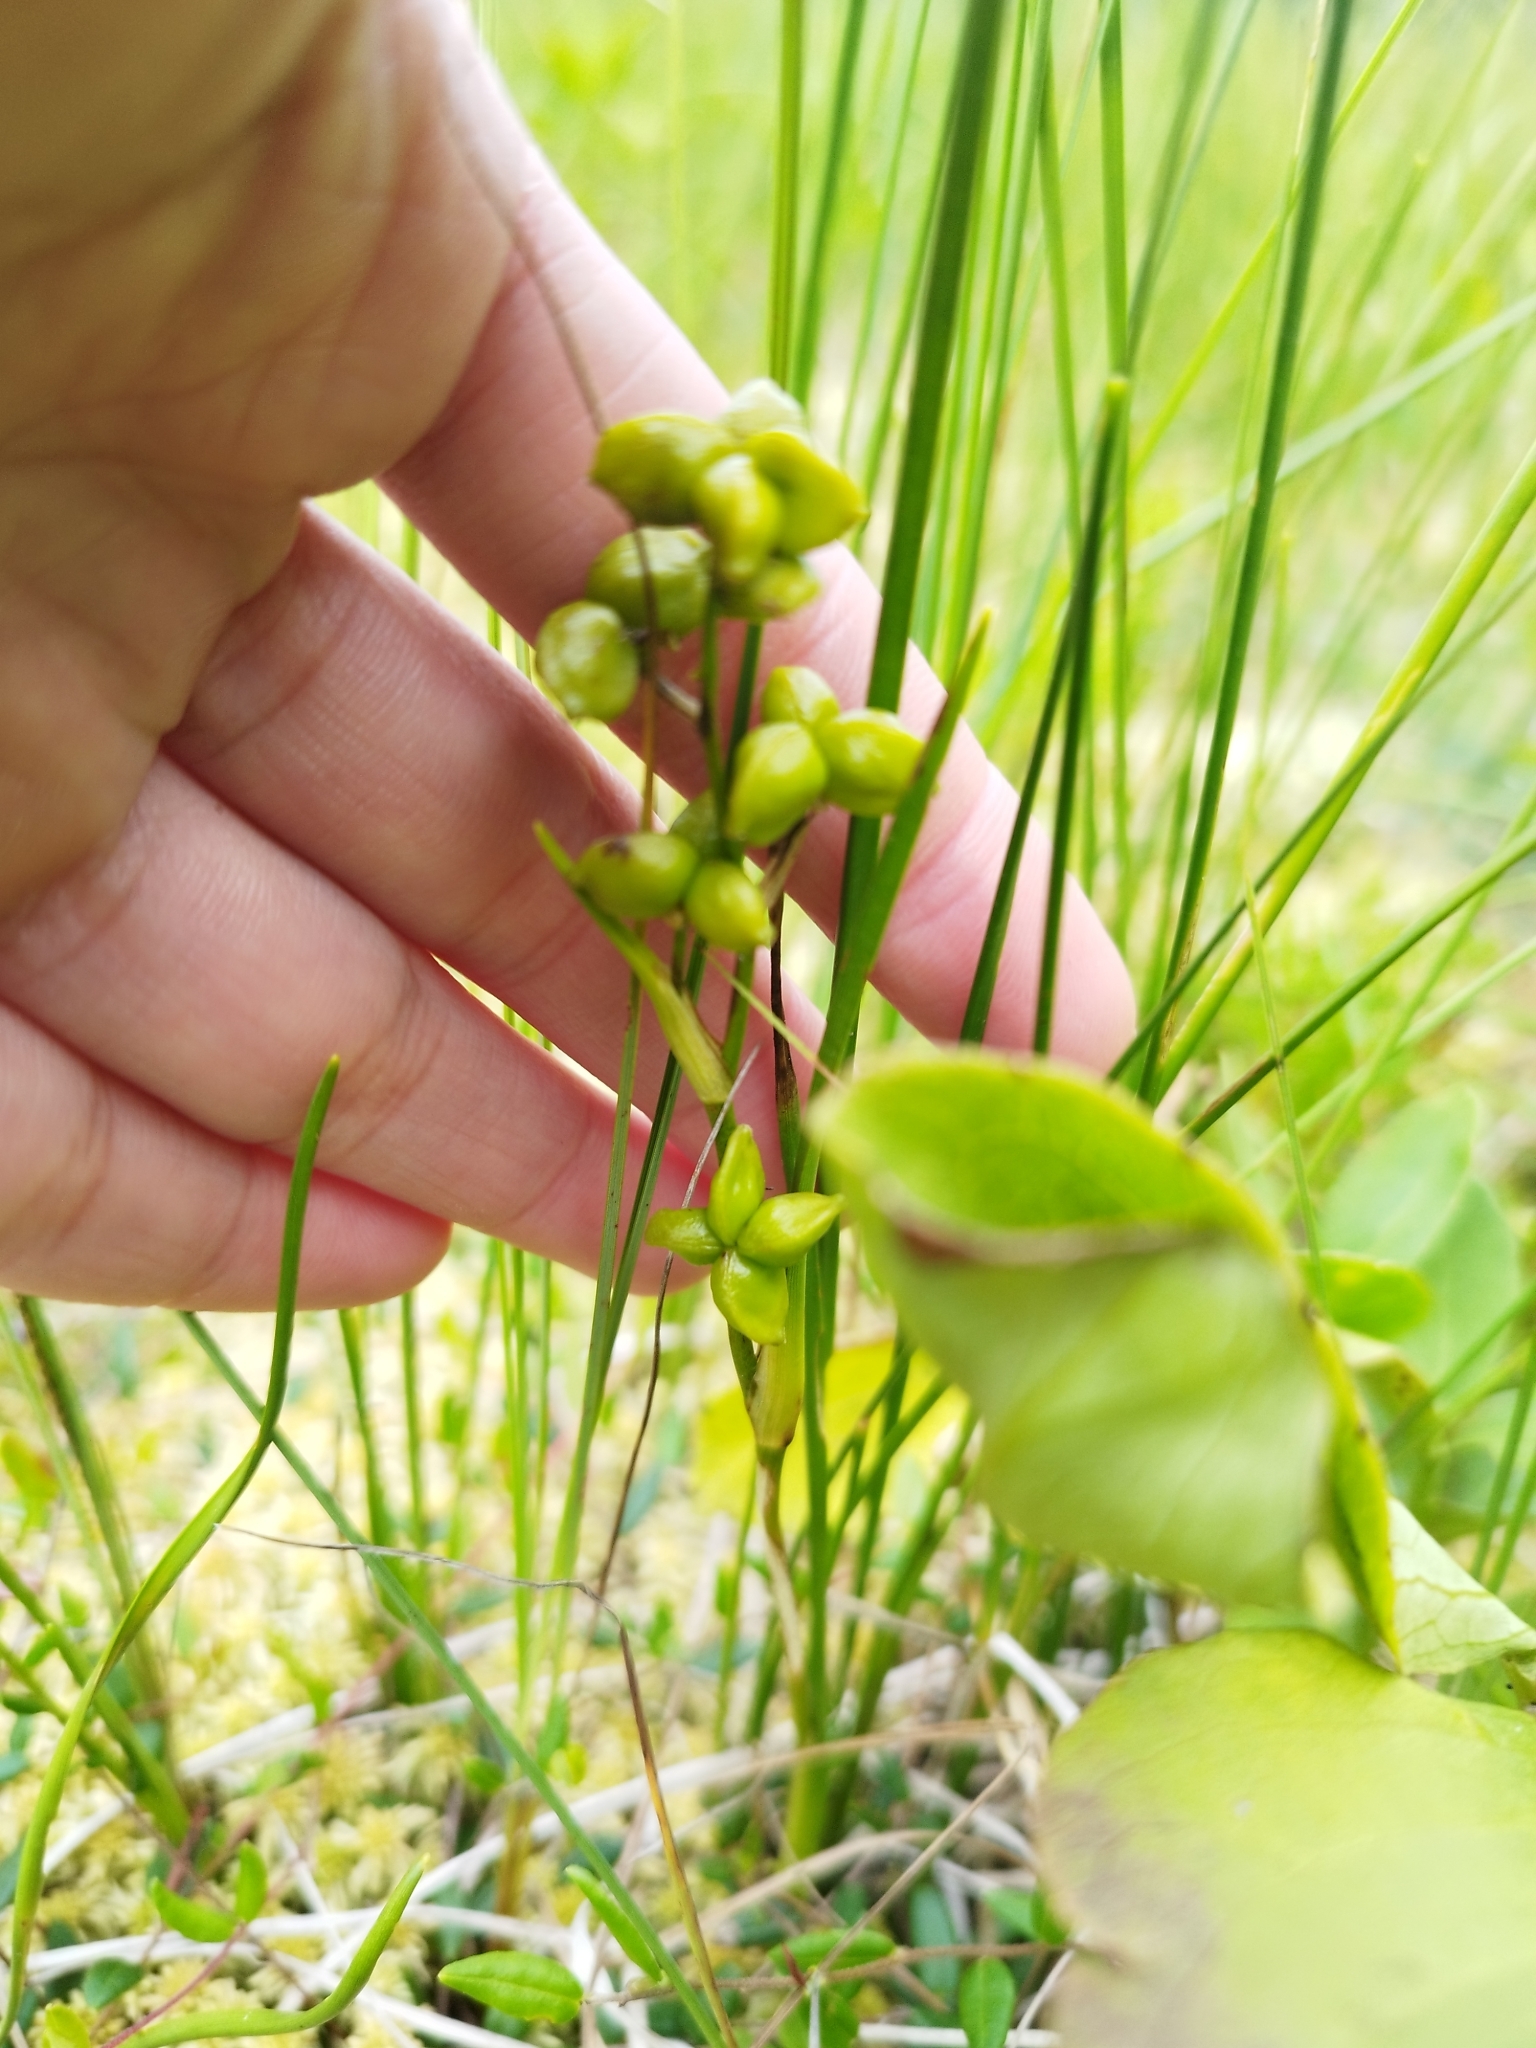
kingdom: Plantae
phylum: Tracheophyta
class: Liliopsida
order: Alismatales
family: Scheuchzeriaceae
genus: Scheuchzeria
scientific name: Scheuchzeria palustris
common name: Rannoch-rush
